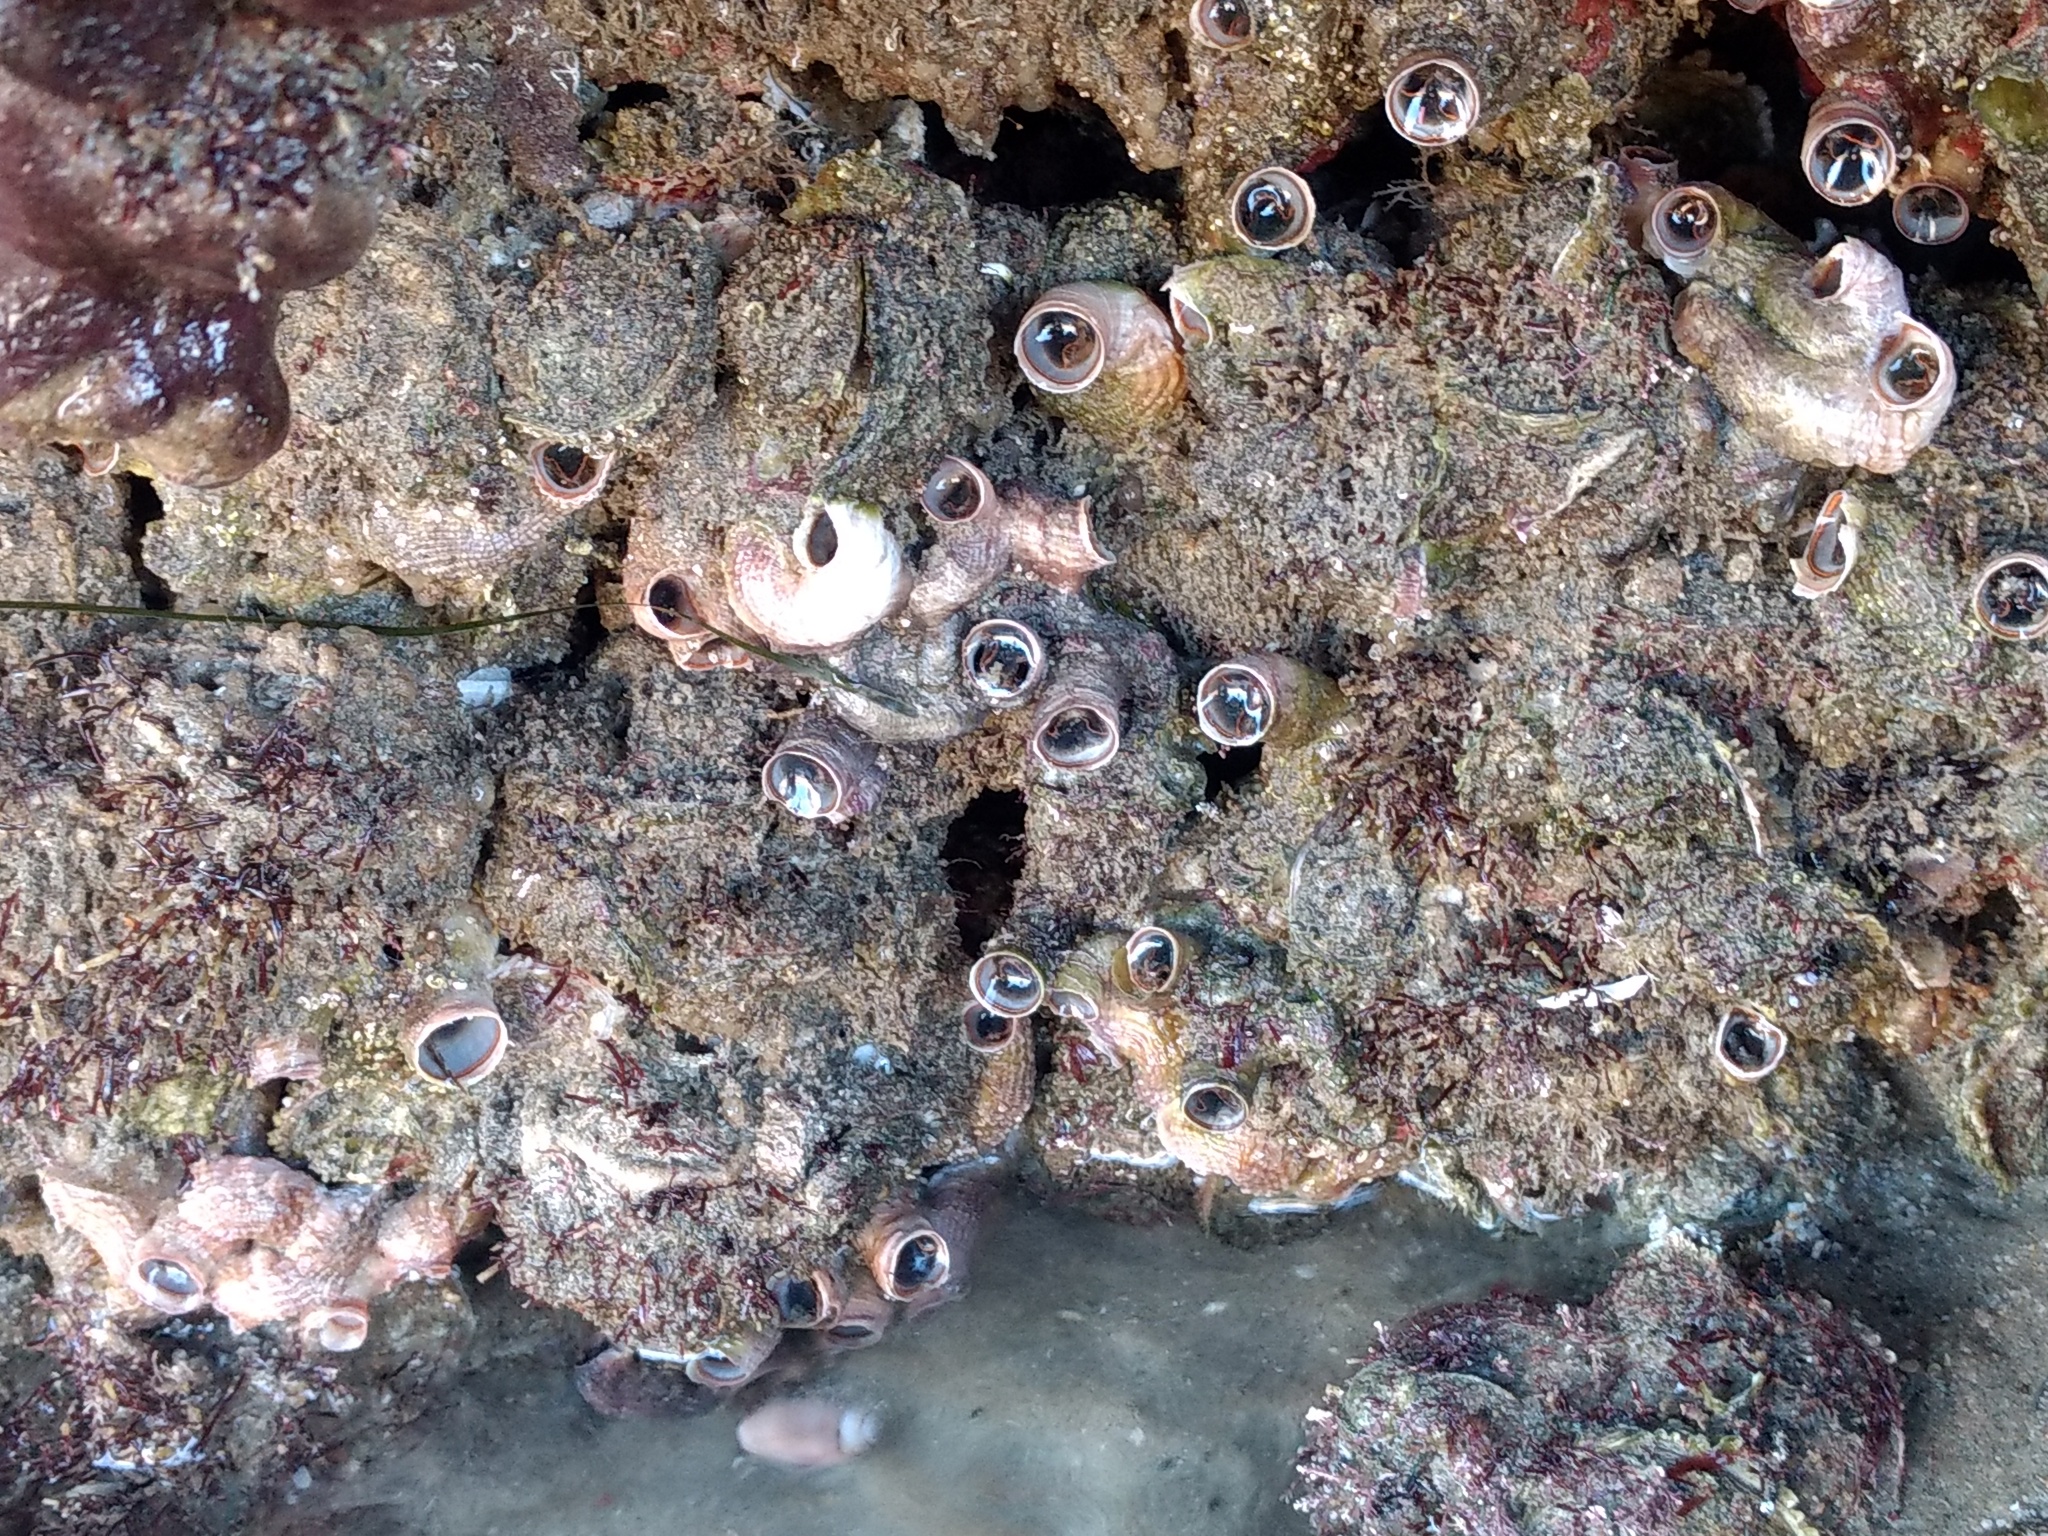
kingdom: Animalia
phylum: Mollusca
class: Gastropoda
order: Littorinimorpha
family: Vermetidae
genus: Thylacodes
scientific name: Thylacodes squamigerus
